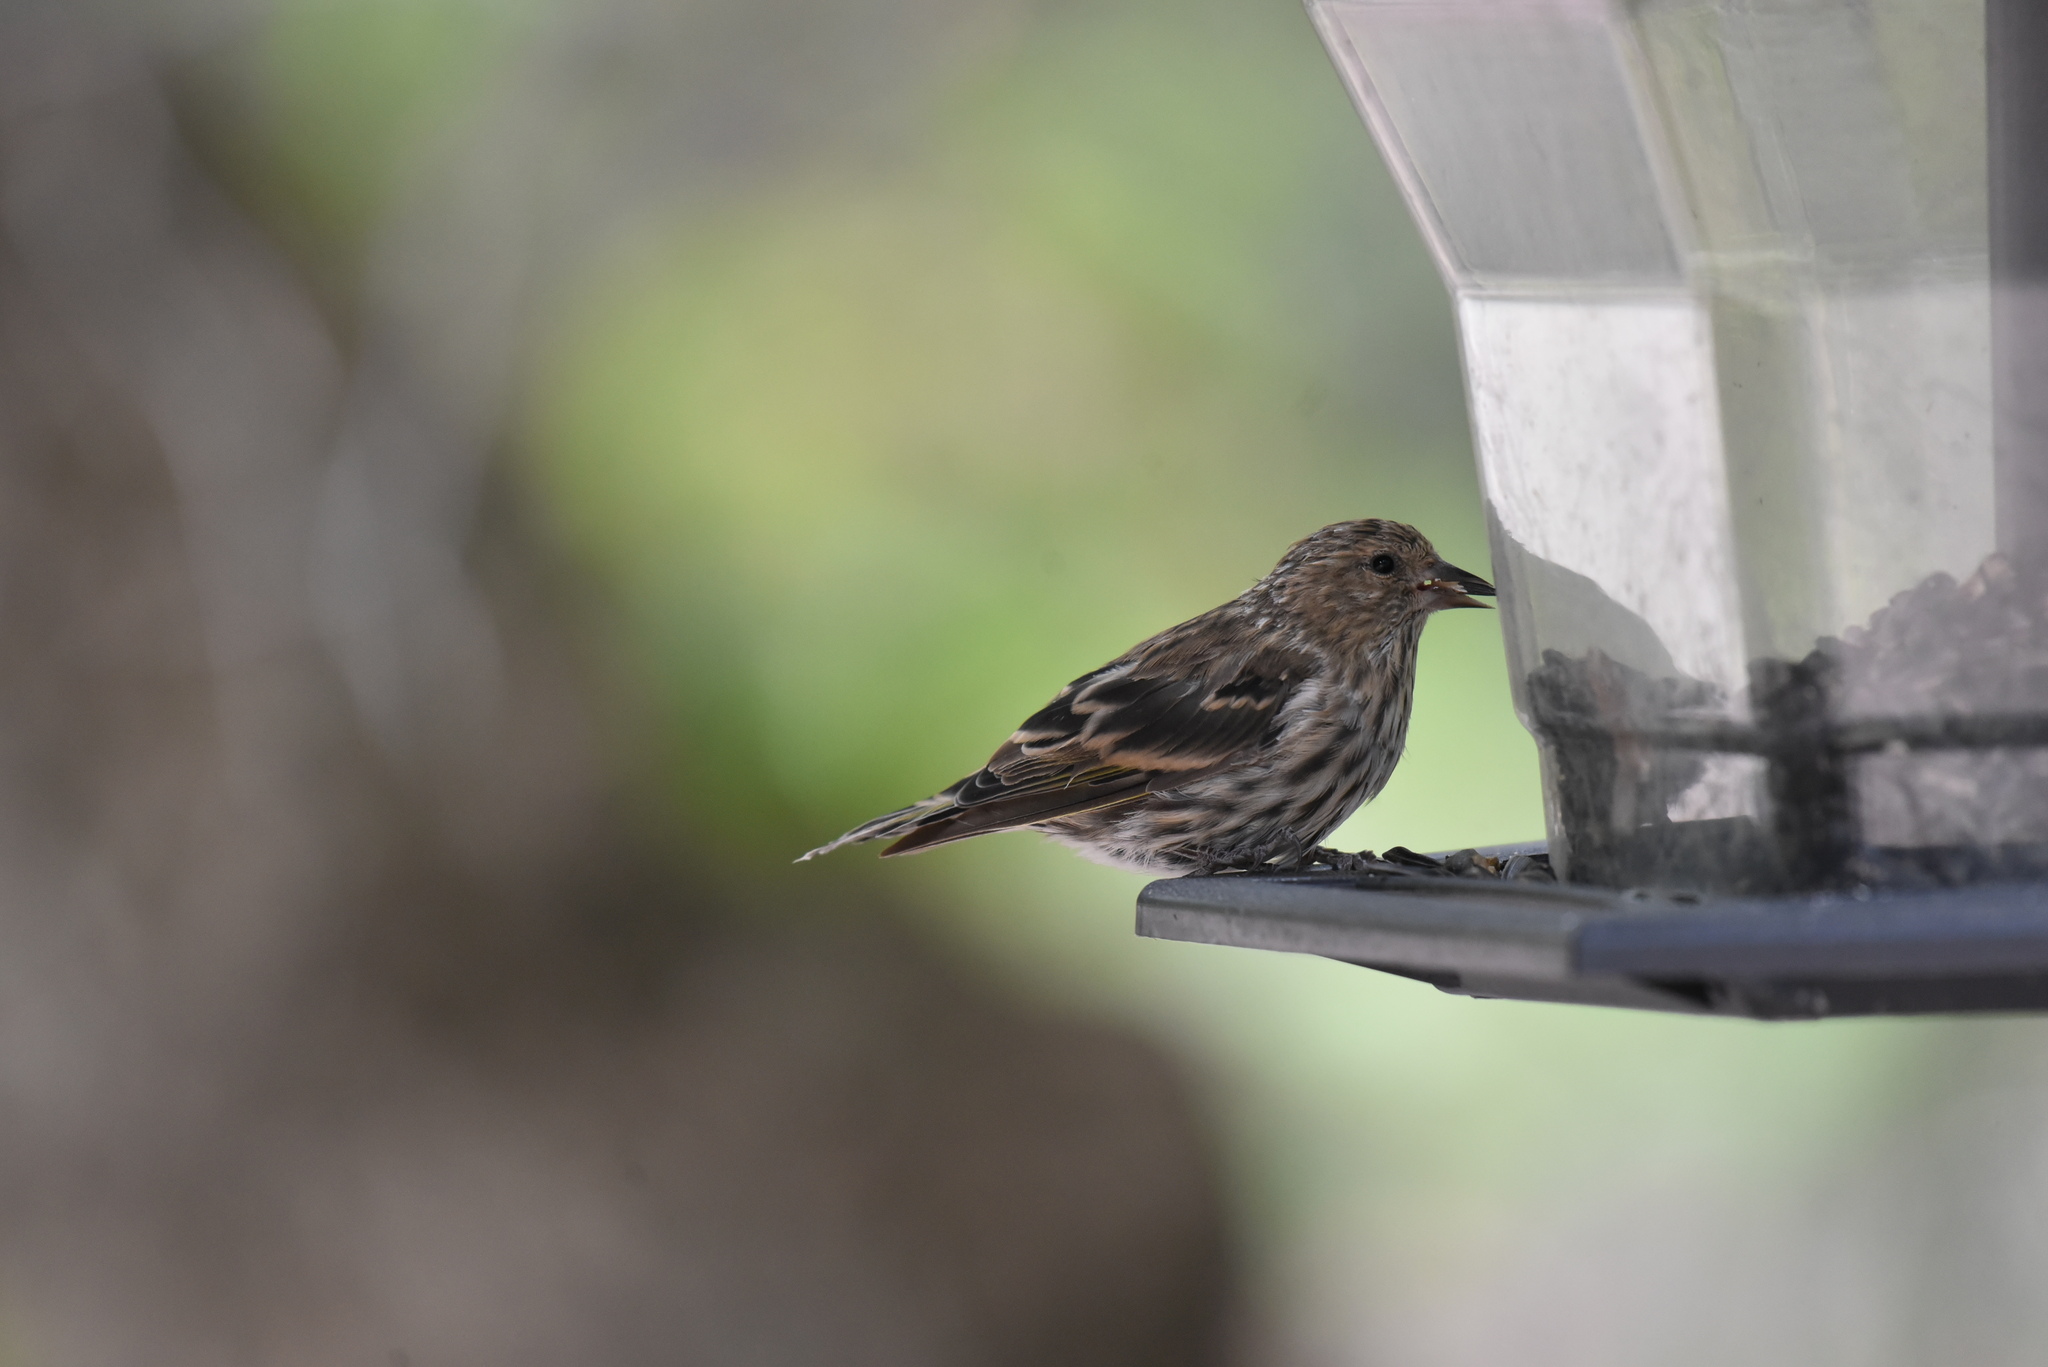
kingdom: Animalia
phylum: Chordata
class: Aves
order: Passeriformes
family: Fringillidae
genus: Spinus
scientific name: Spinus pinus
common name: Pine siskin
